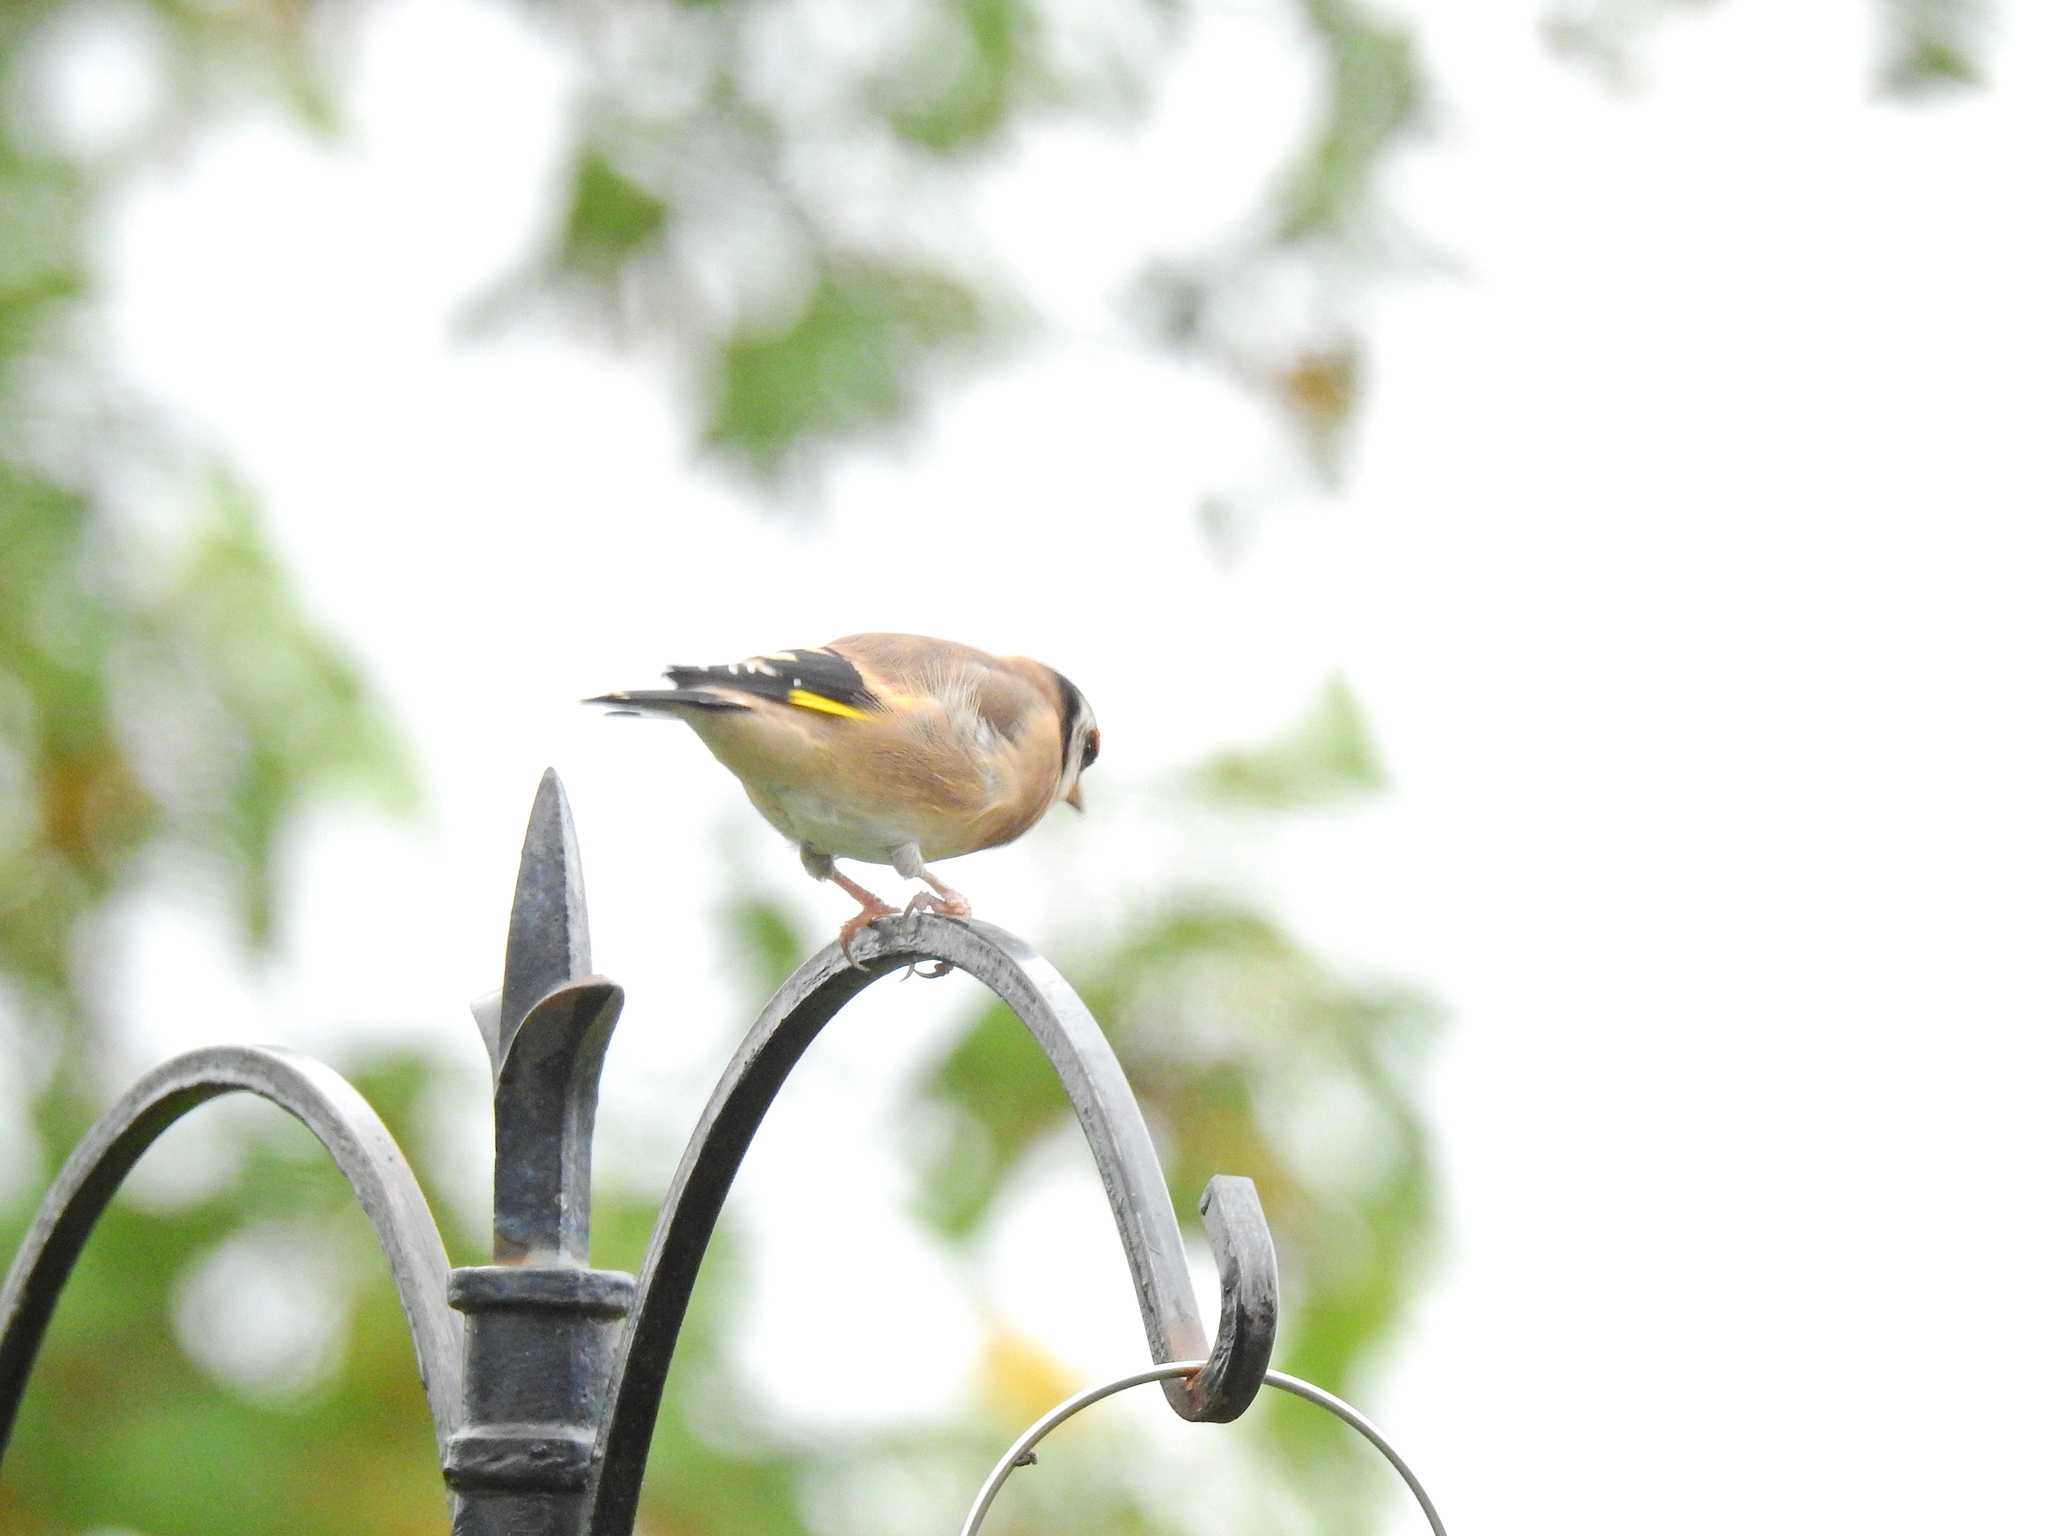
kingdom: Animalia
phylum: Chordata
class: Aves
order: Passeriformes
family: Fringillidae
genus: Carduelis
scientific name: Carduelis carduelis
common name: European goldfinch
